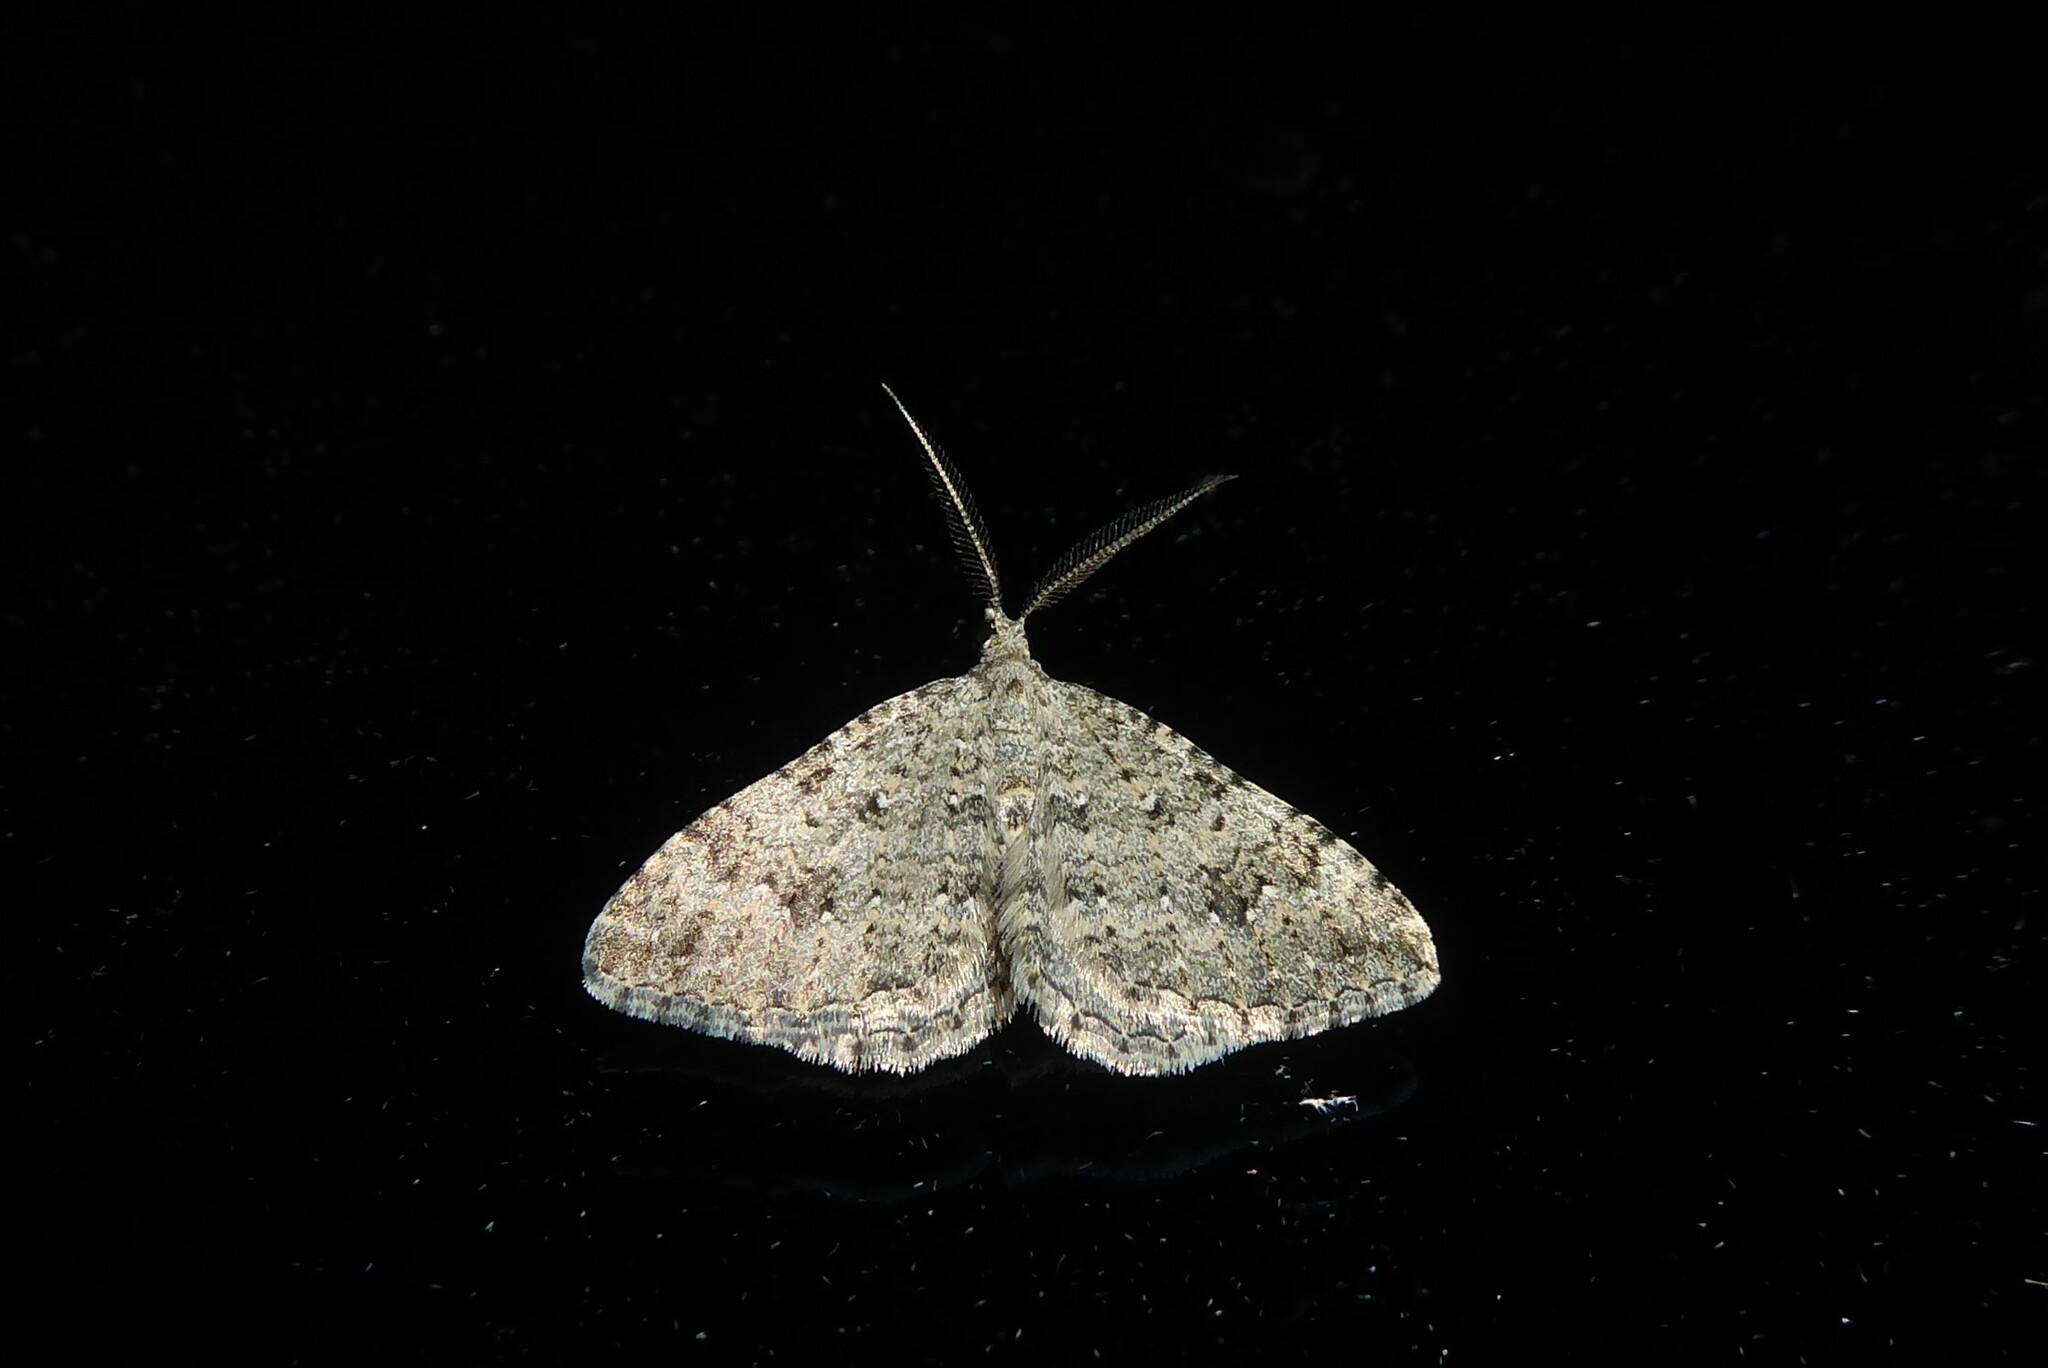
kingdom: Animalia
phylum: Arthropoda
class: Insecta
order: Lepidoptera
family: Geometridae
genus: Helastia
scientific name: Helastia corcularia
